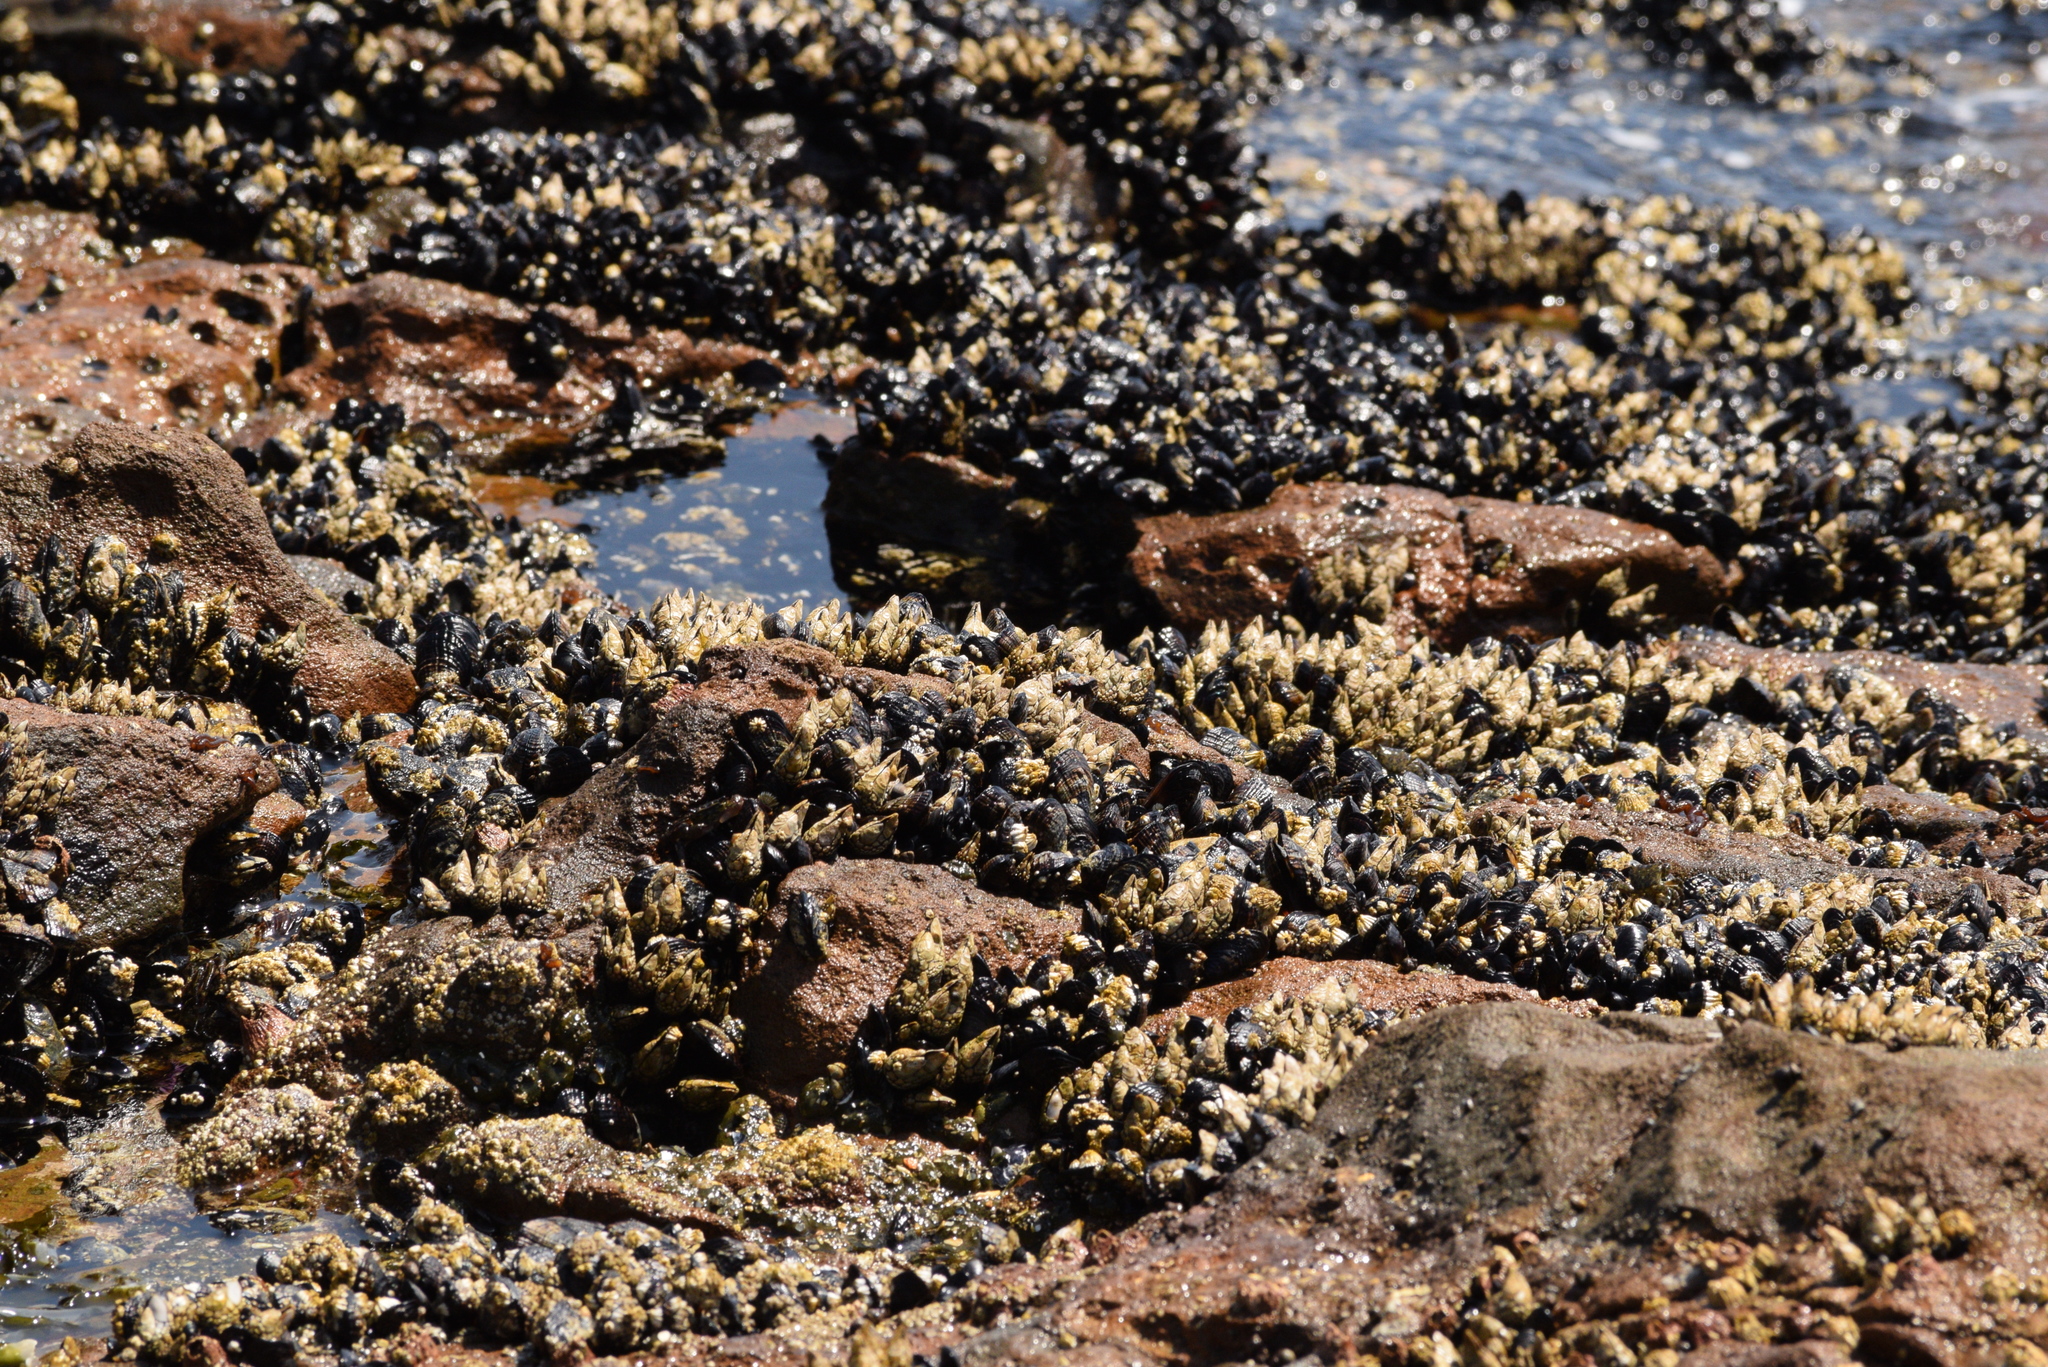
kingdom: Animalia
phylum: Arthropoda
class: Maxillopoda
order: Pedunculata
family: Pollicipedidae
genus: Pollicipes
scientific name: Pollicipes polymerus
